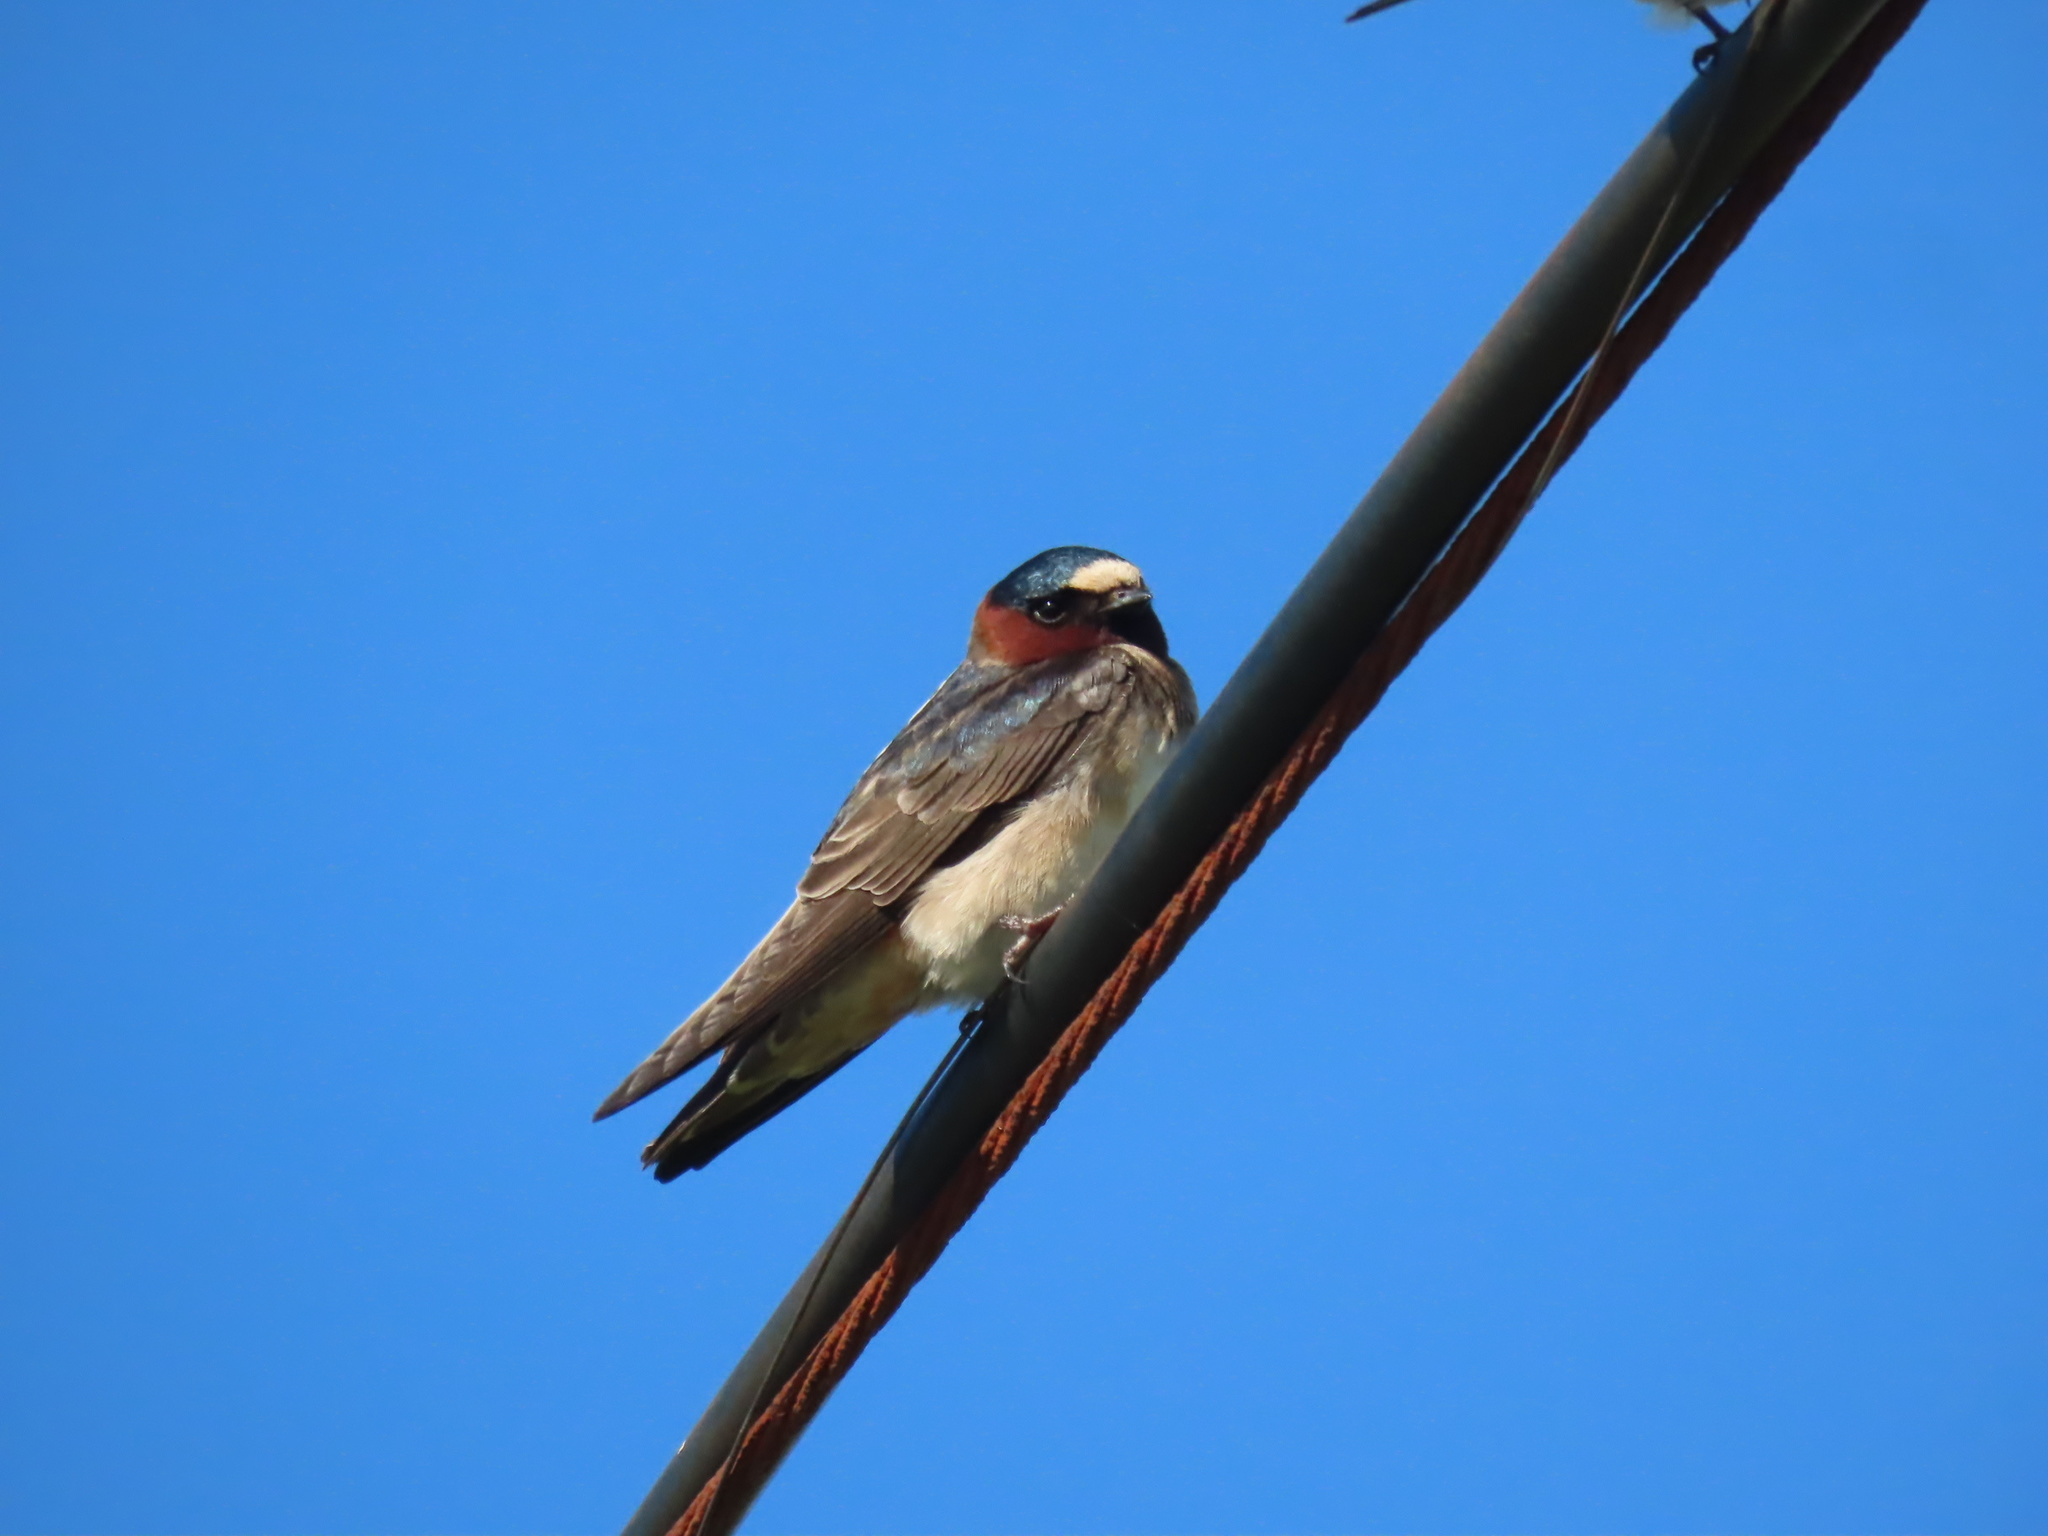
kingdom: Animalia
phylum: Chordata
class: Aves
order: Passeriformes
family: Hirundinidae
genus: Petrochelidon
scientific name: Petrochelidon pyrrhonota
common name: American cliff swallow
